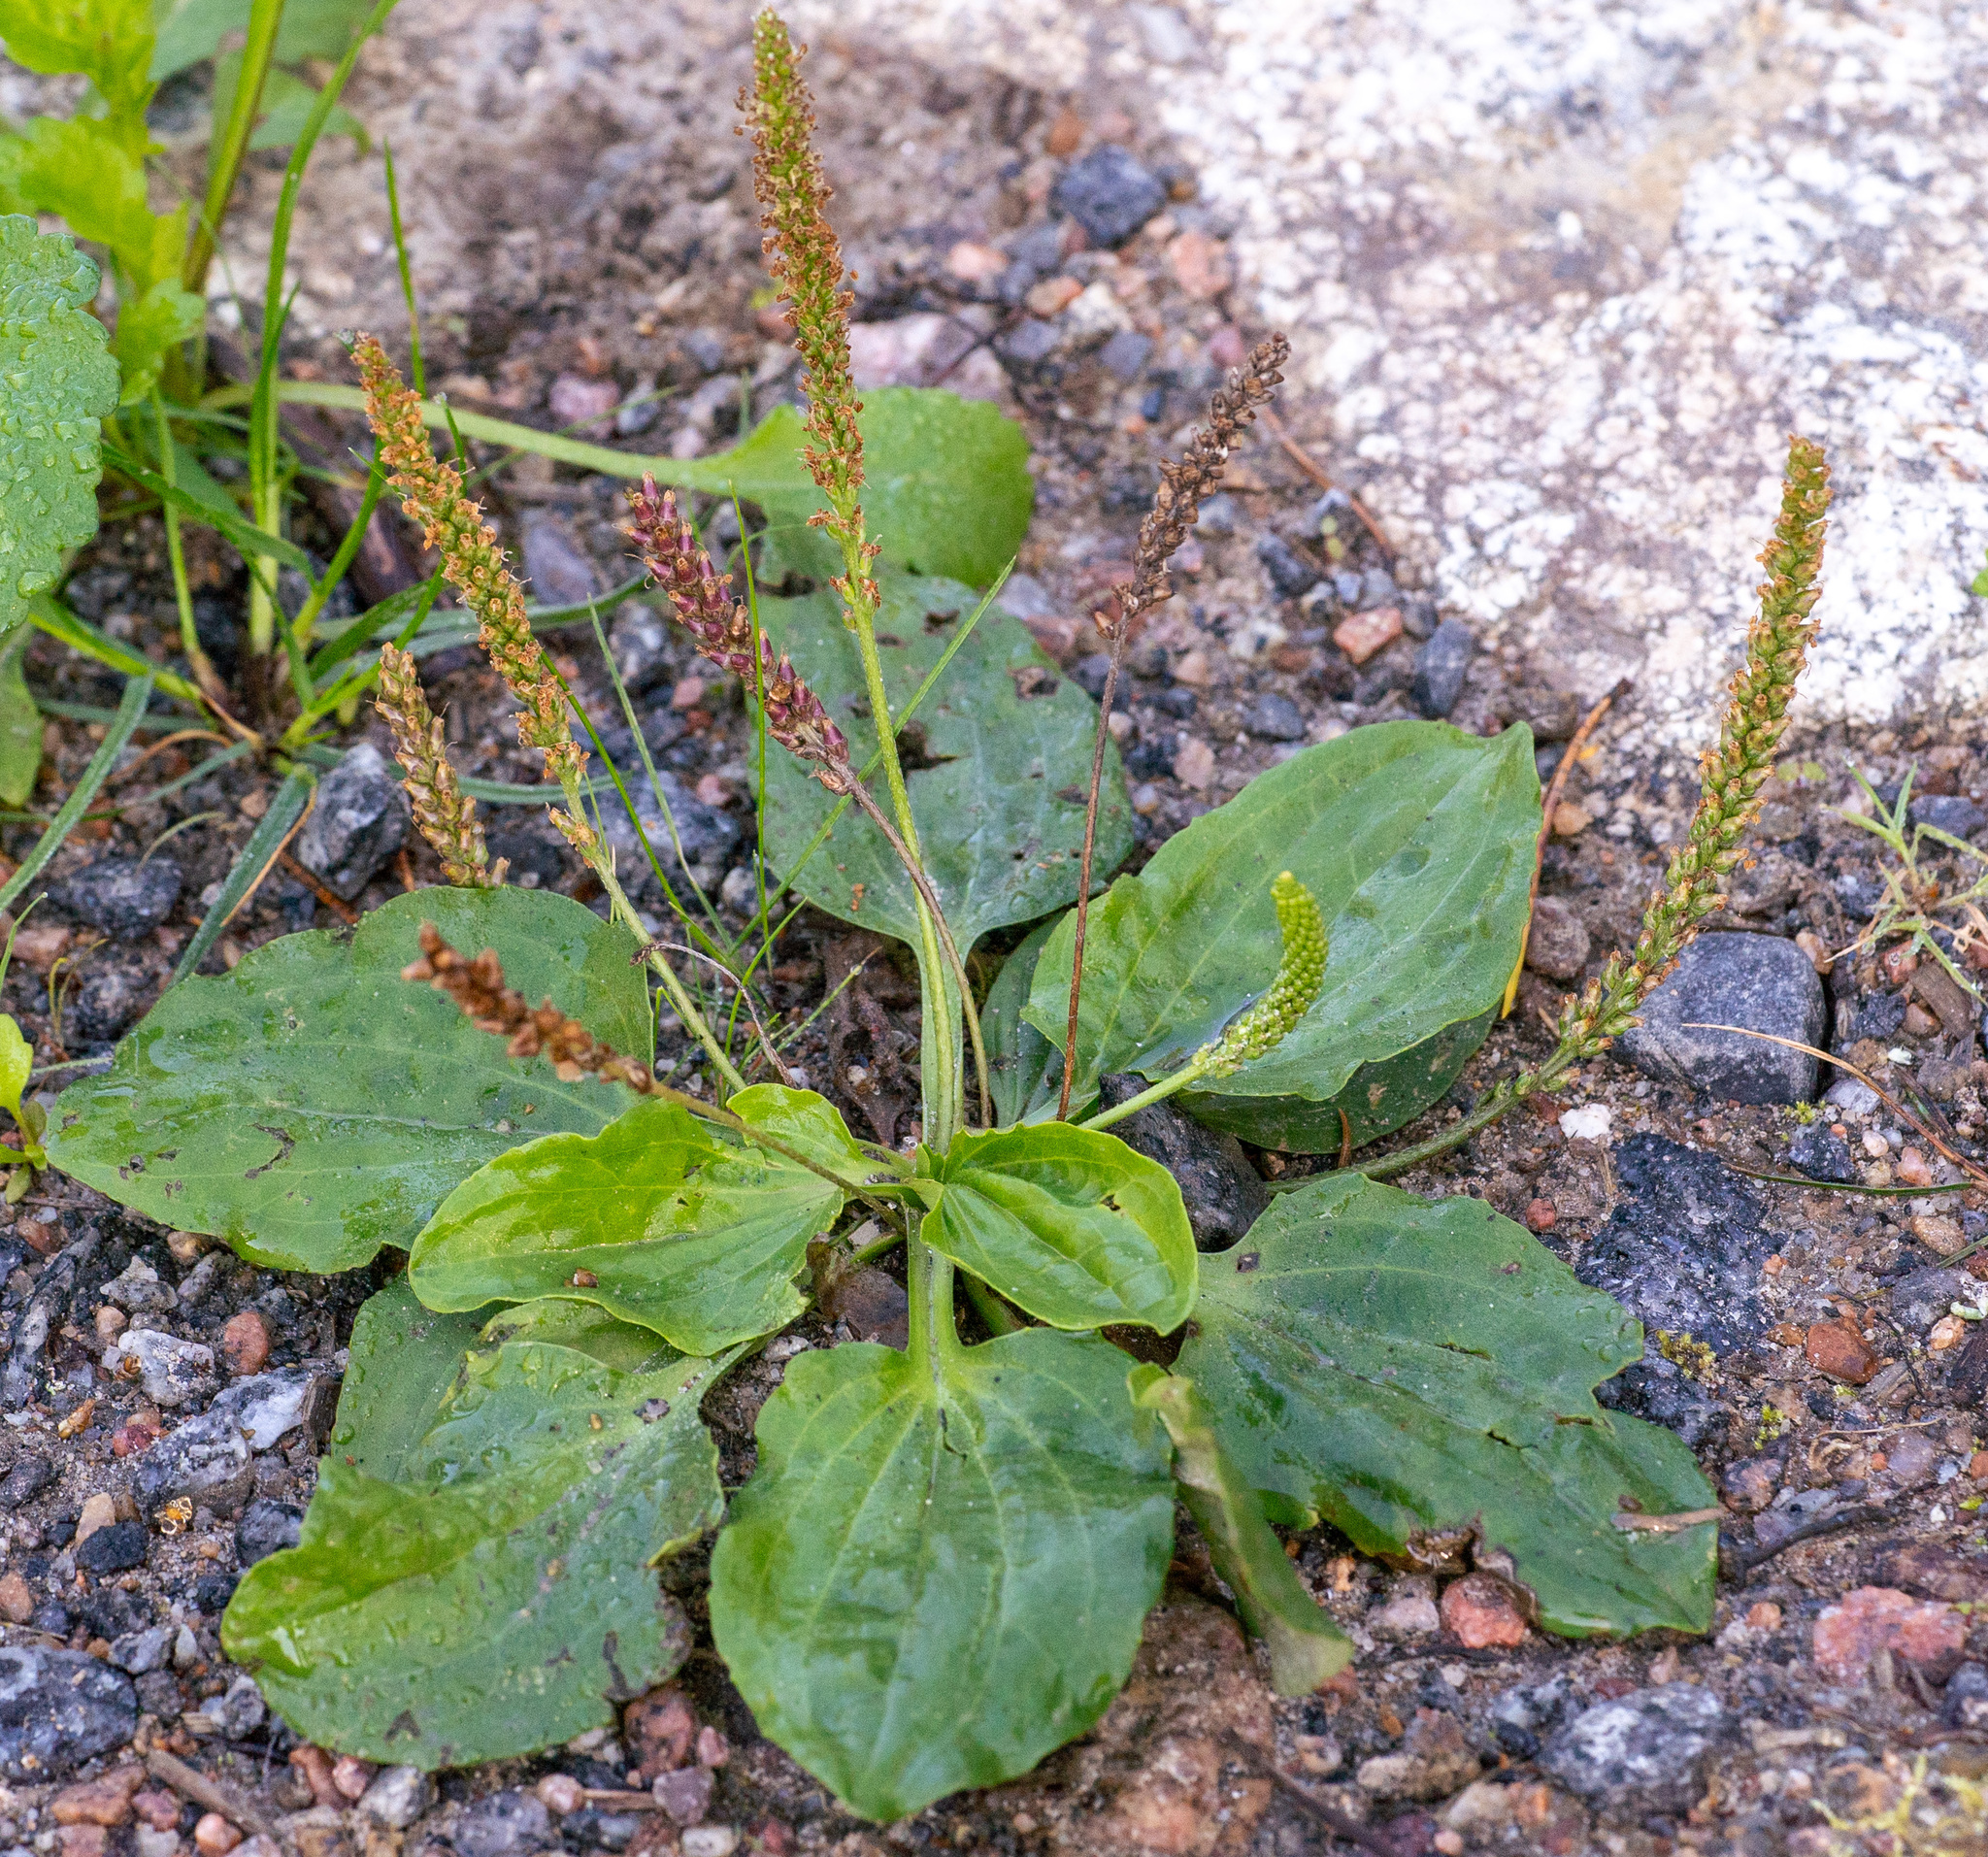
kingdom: Plantae
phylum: Tracheophyta
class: Magnoliopsida
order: Lamiales
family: Plantaginaceae
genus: Plantago
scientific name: Plantago major
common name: Common plantain
